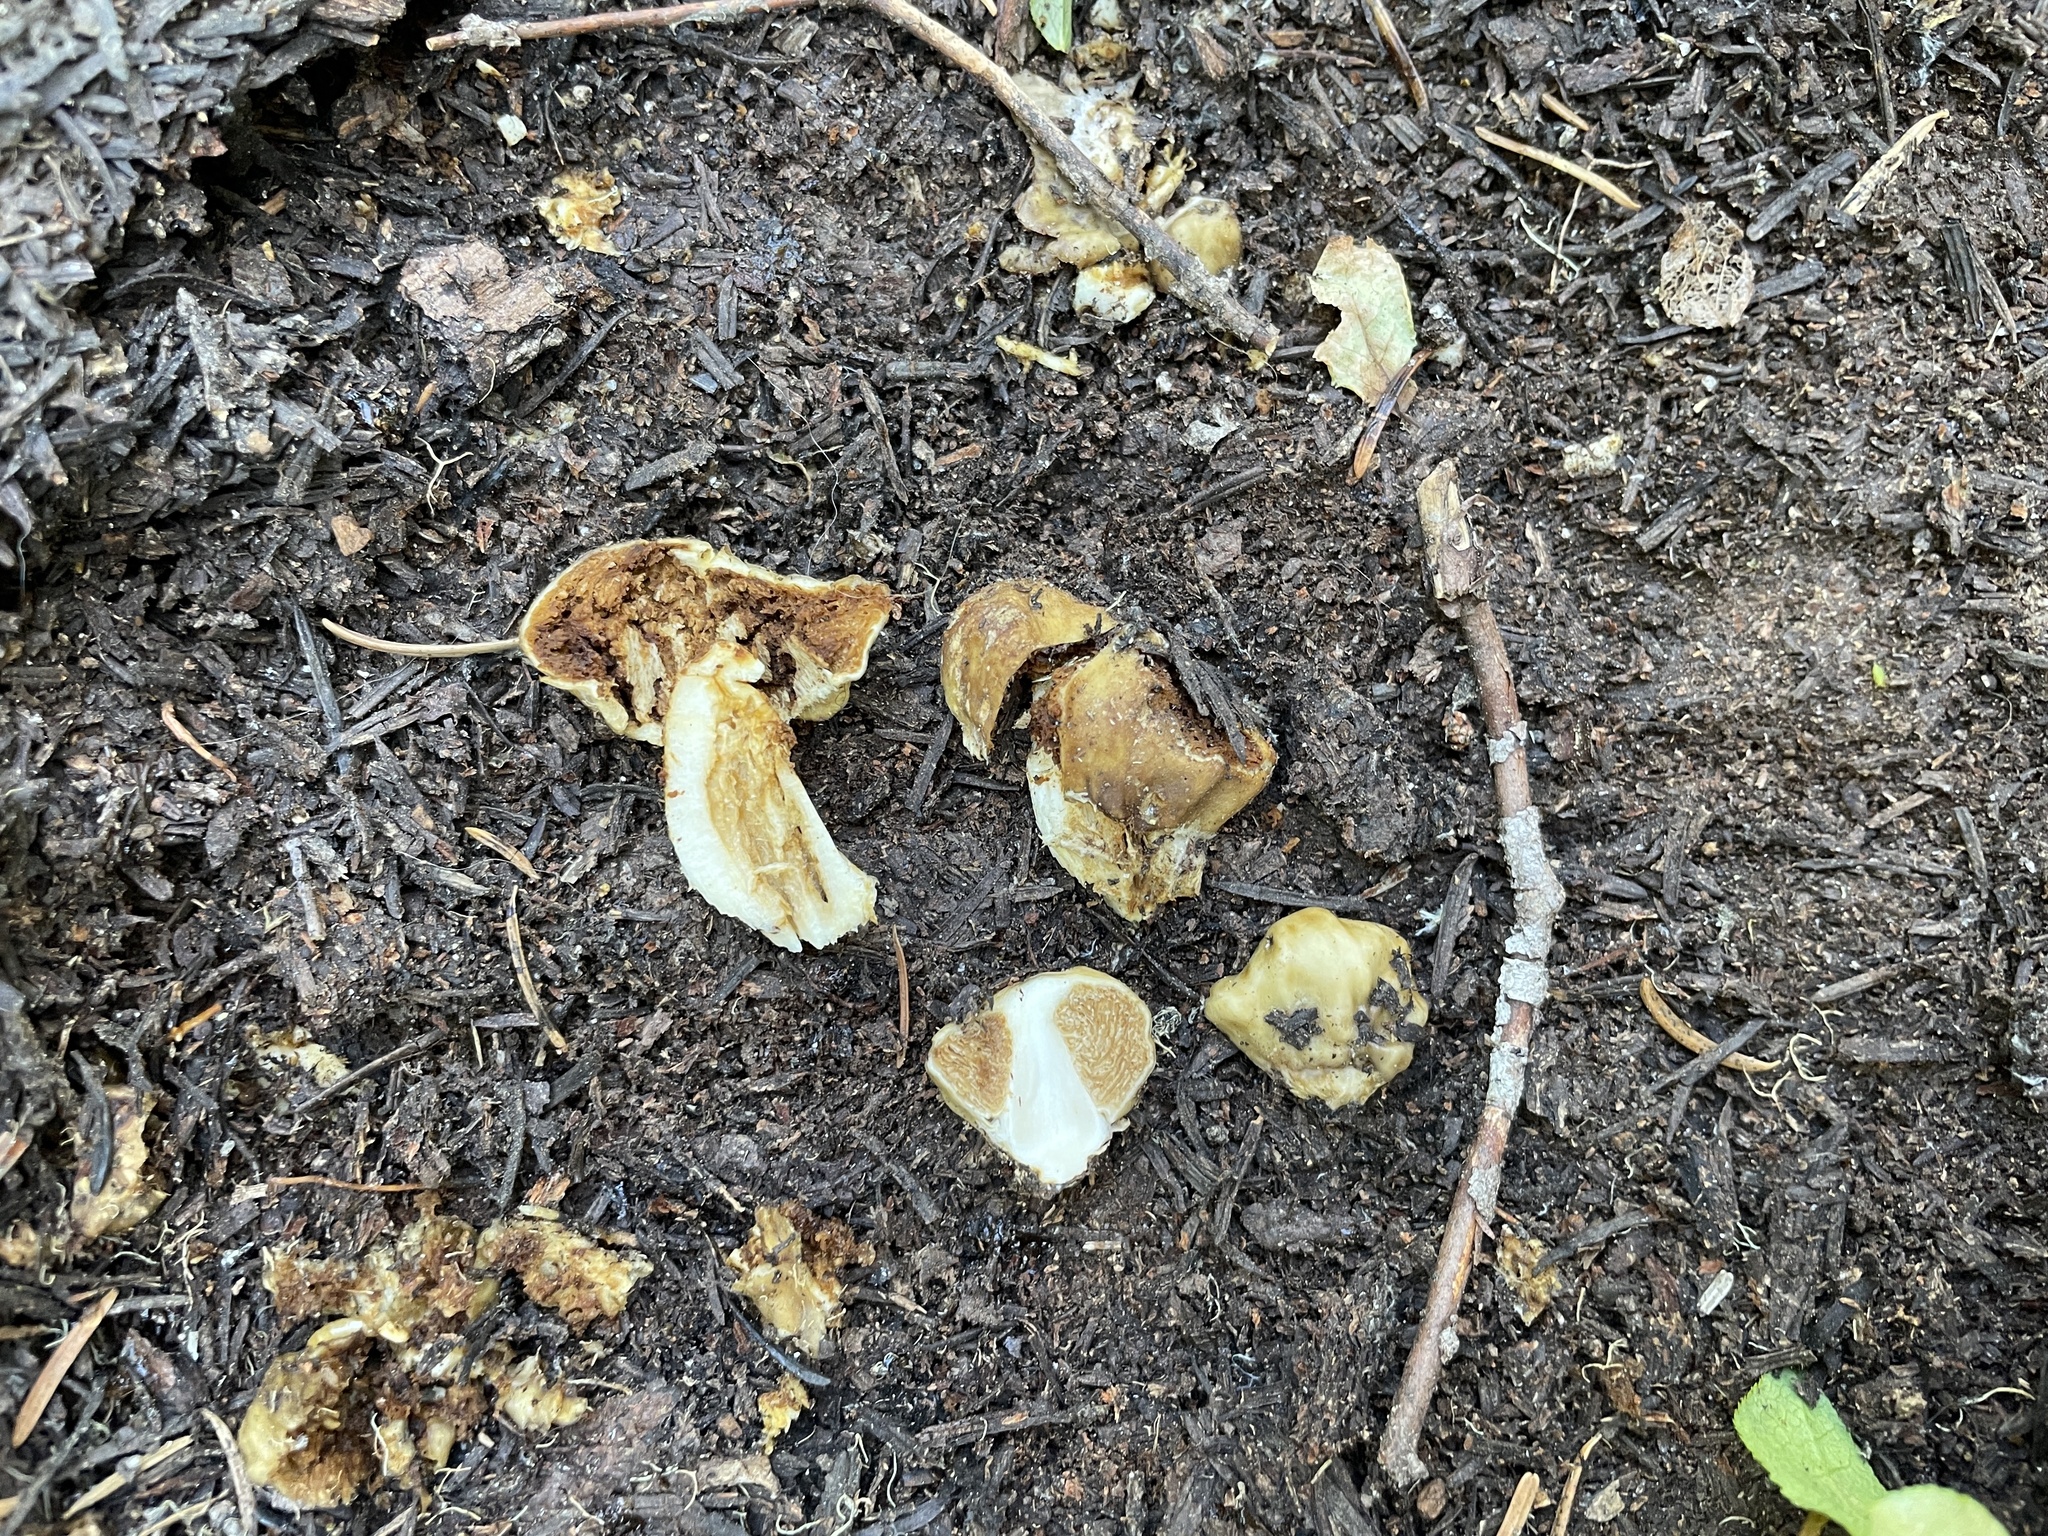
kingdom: Fungi
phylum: Basidiomycota
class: Agaricomycetes
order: Agaricales
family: Cortinariaceae
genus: Cortinarius
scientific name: Cortinarius pinguis
